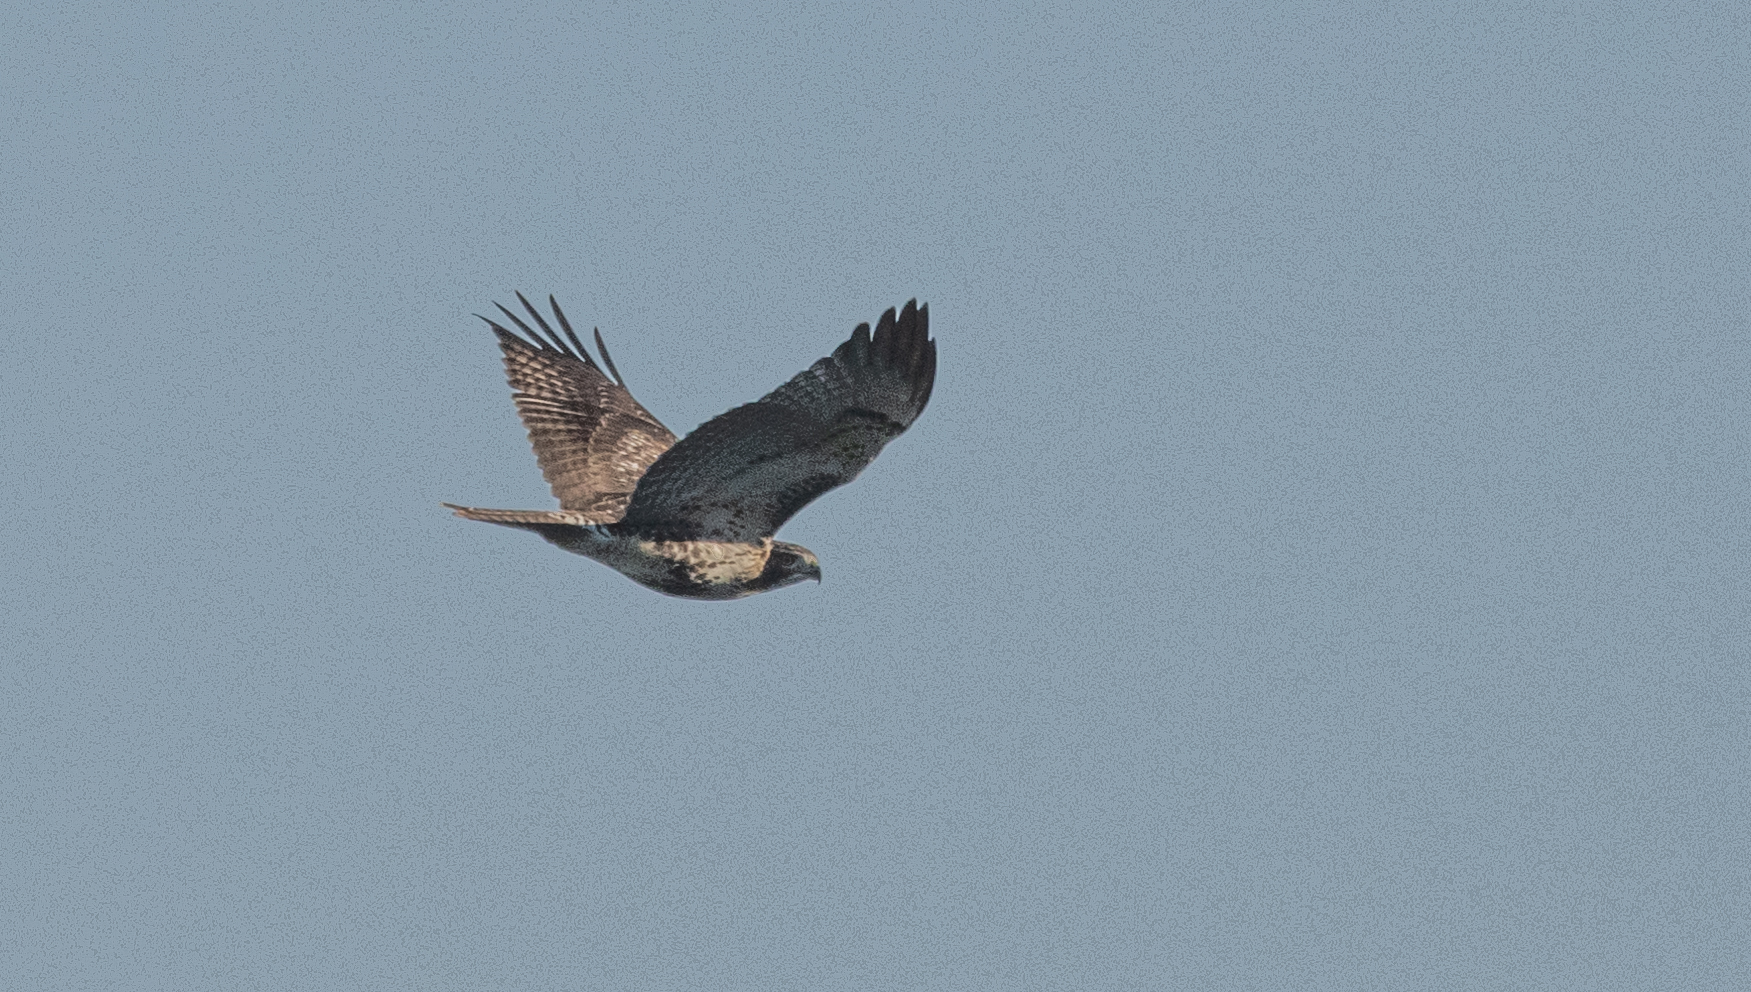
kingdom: Animalia
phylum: Chordata
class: Aves
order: Accipitriformes
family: Accipitridae
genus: Buteo
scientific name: Buteo jamaicensis
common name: Red-tailed hawk
